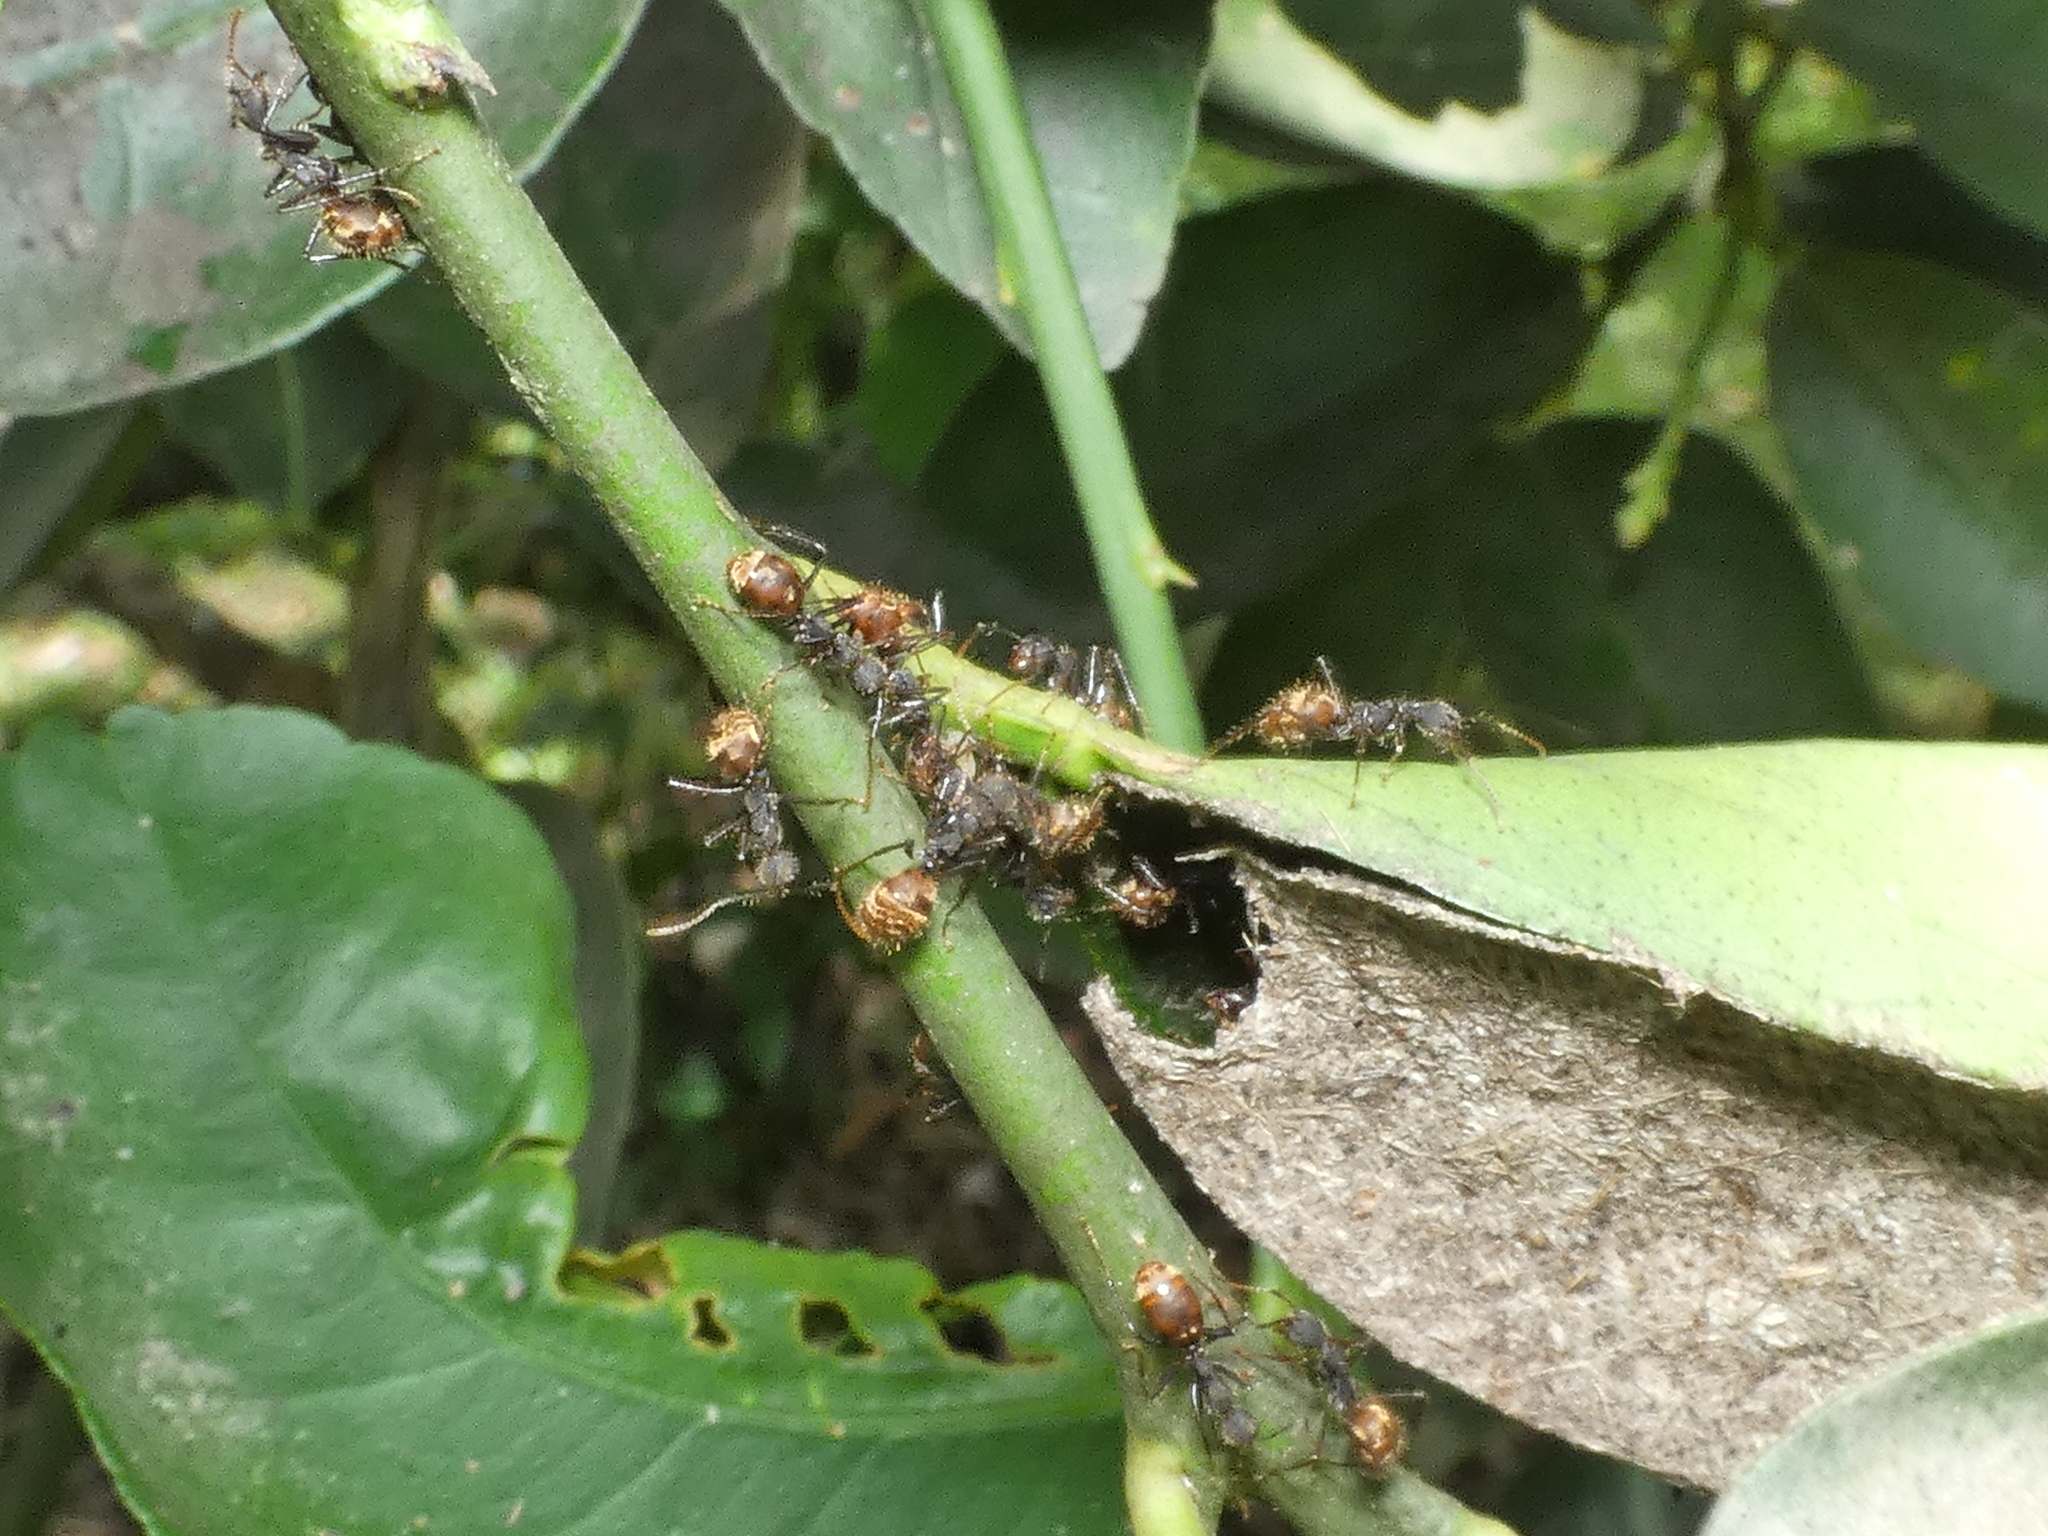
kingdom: Animalia
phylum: Arthropoda
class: Insecta
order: Hymenoptera
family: Formicidae
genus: Dolichoderus
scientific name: Dolichoderus bidens
